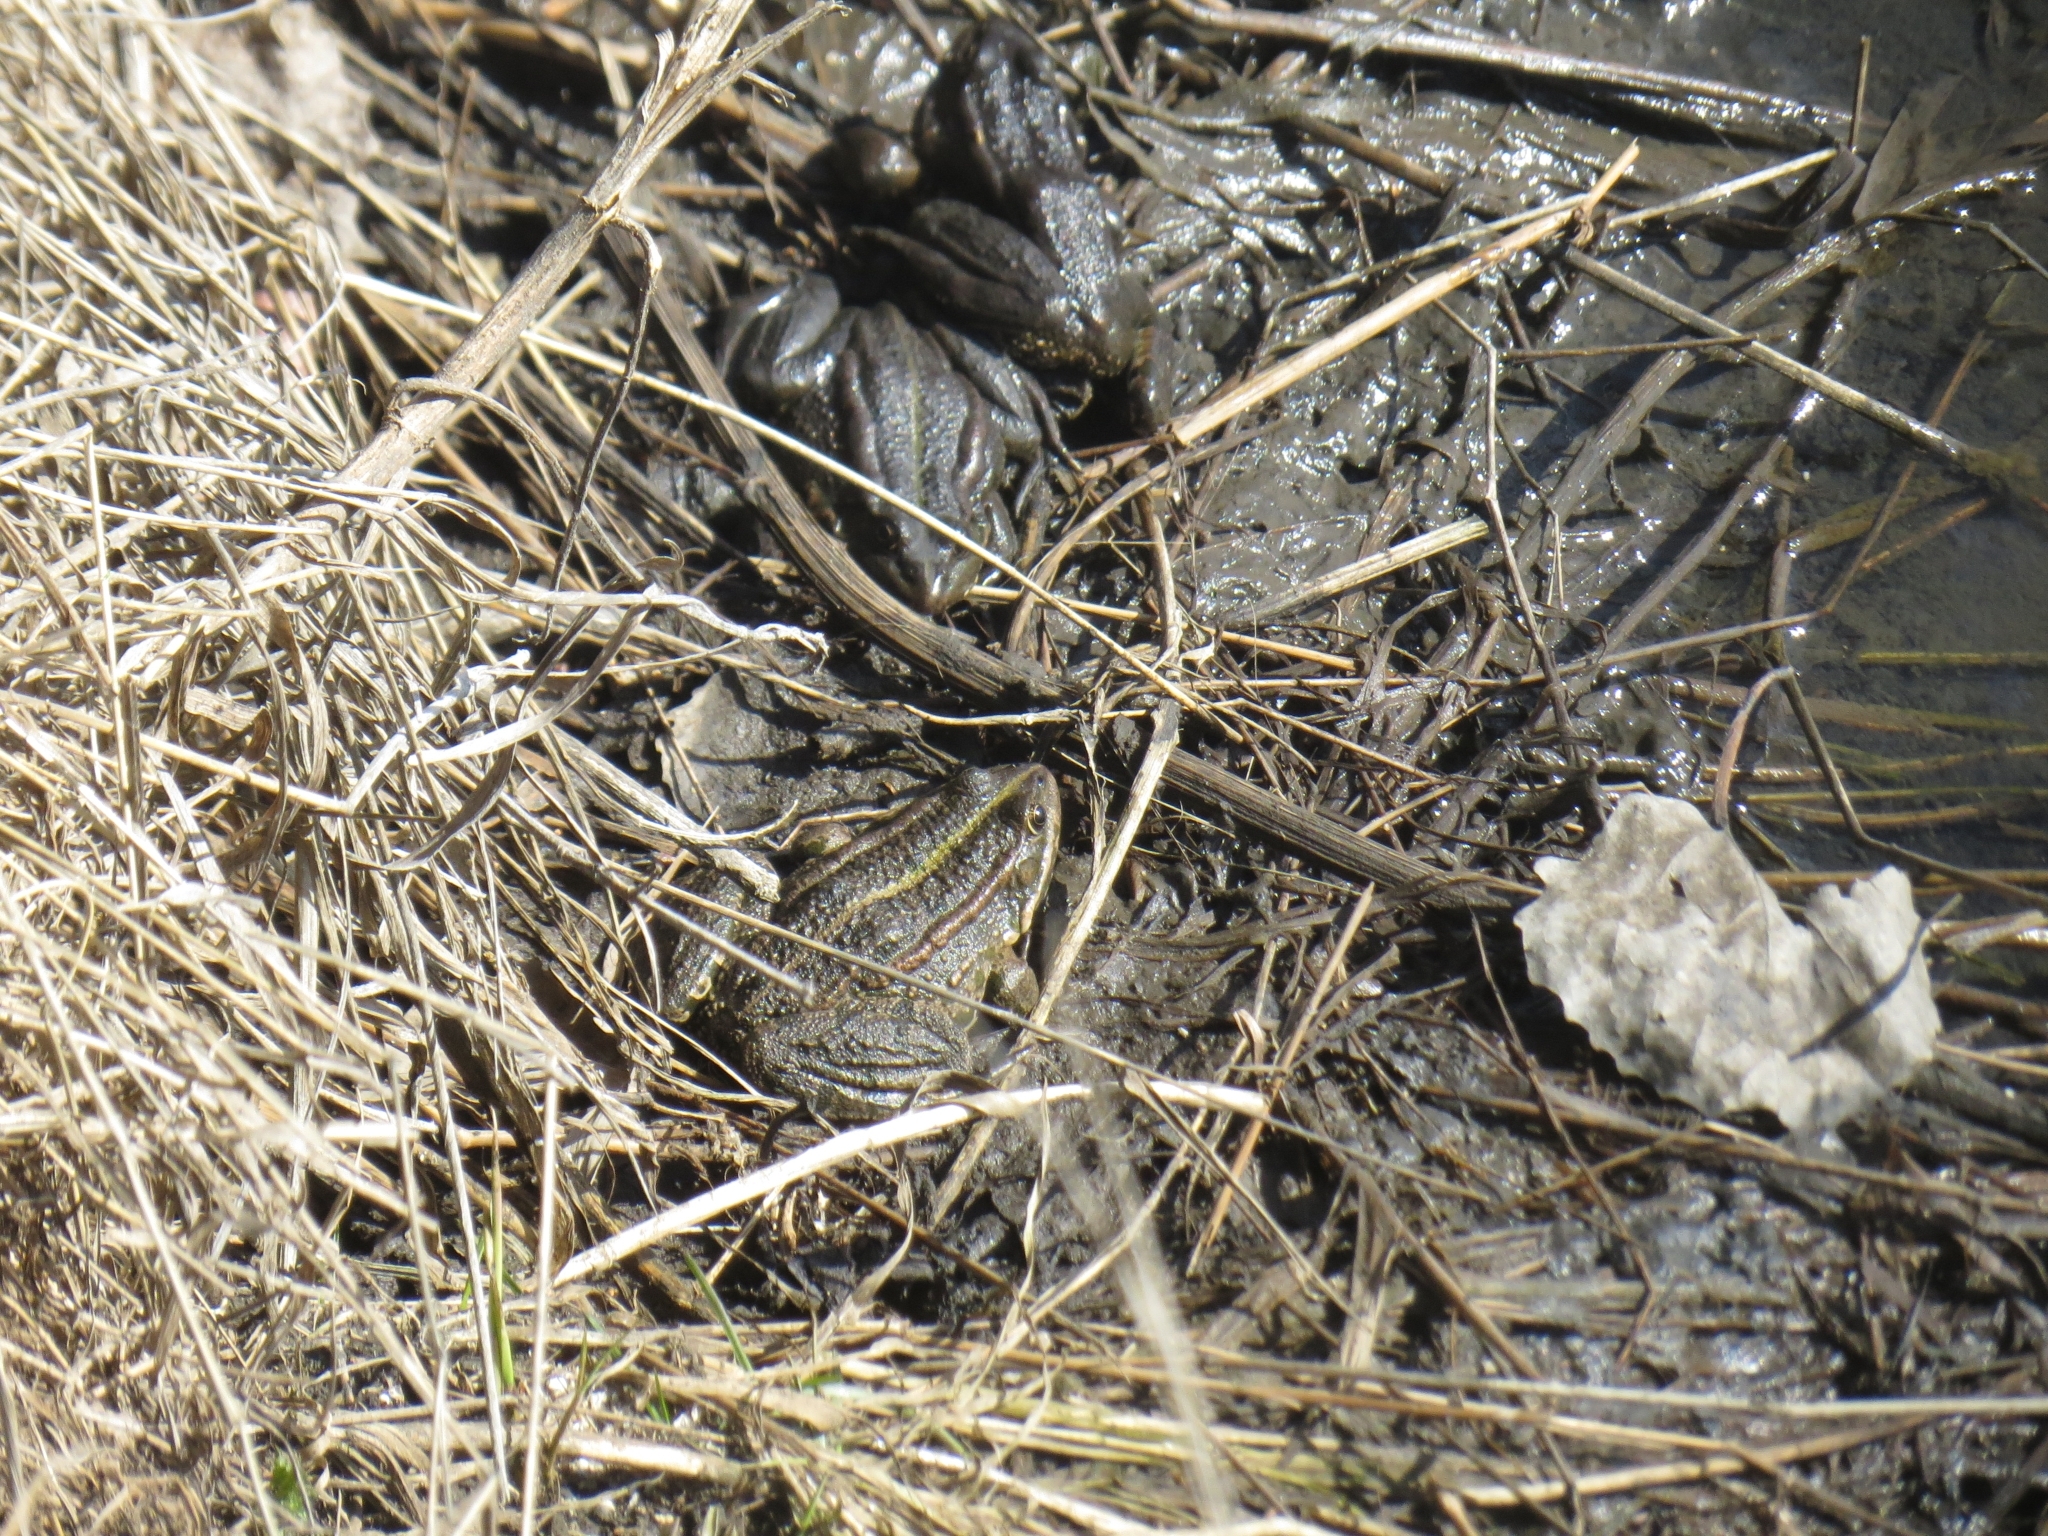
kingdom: Animalia
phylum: Chordata
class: Amphibia
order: Anura
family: Ranidae
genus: Pelophylax
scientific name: Pelophylax ridibundus
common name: Marsh frog
